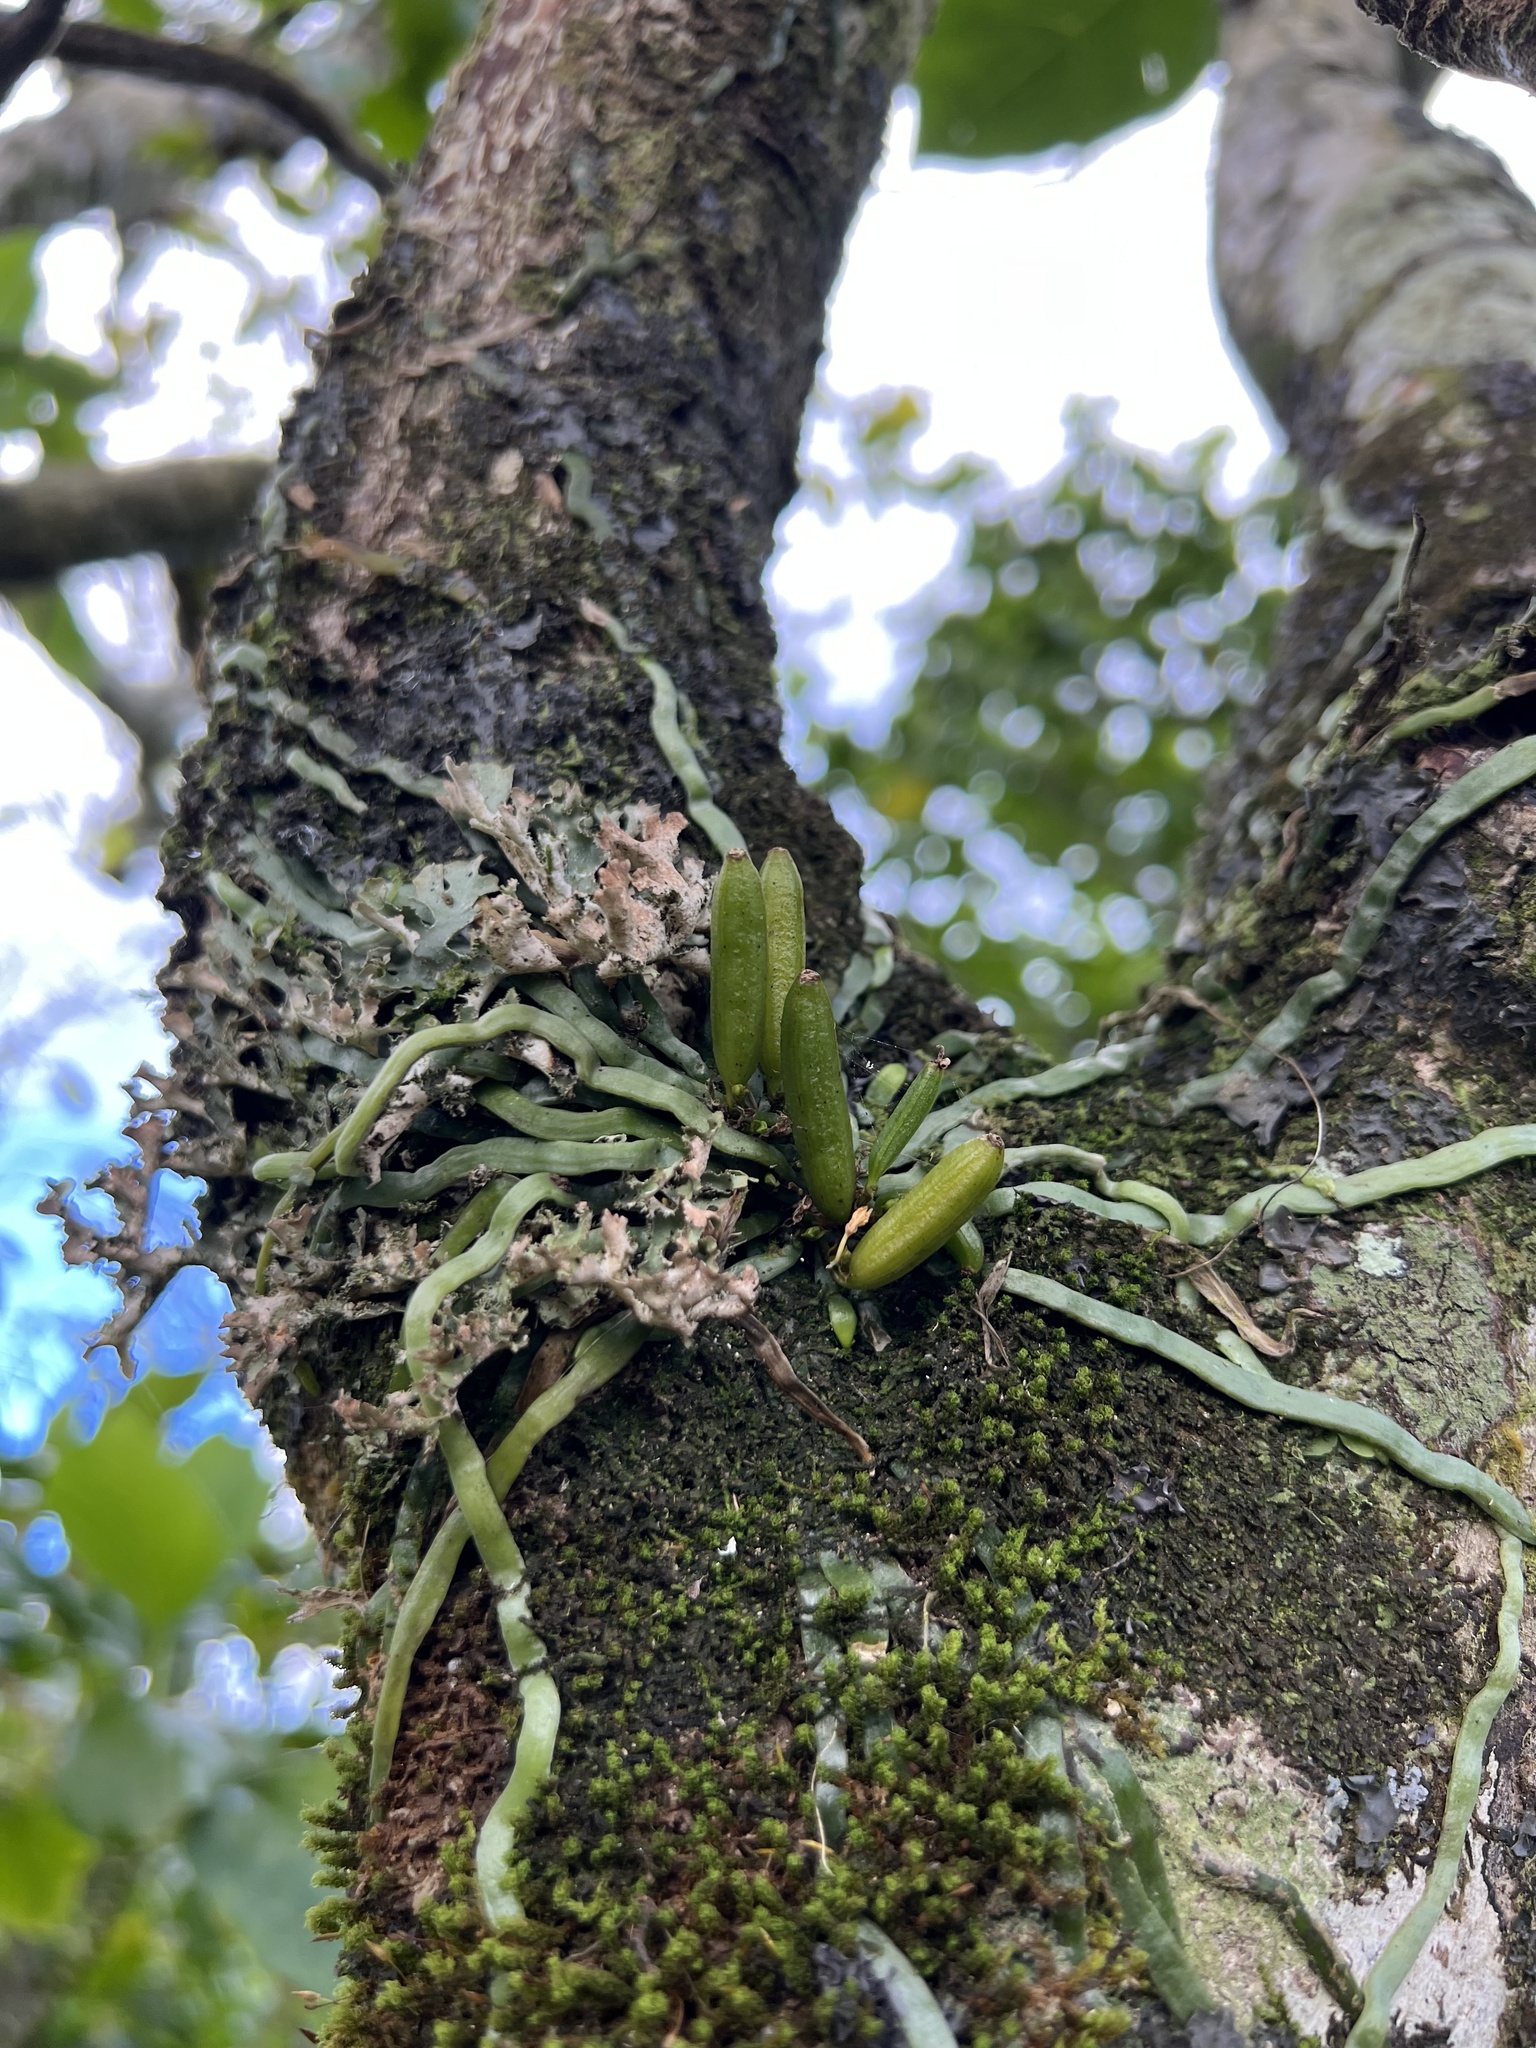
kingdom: Plantae
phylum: Tracheophyta
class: Liliopsida
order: Asparagales
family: Orchidaceae
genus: Taeniophyllum
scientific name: Taeniophyllum fasciola
